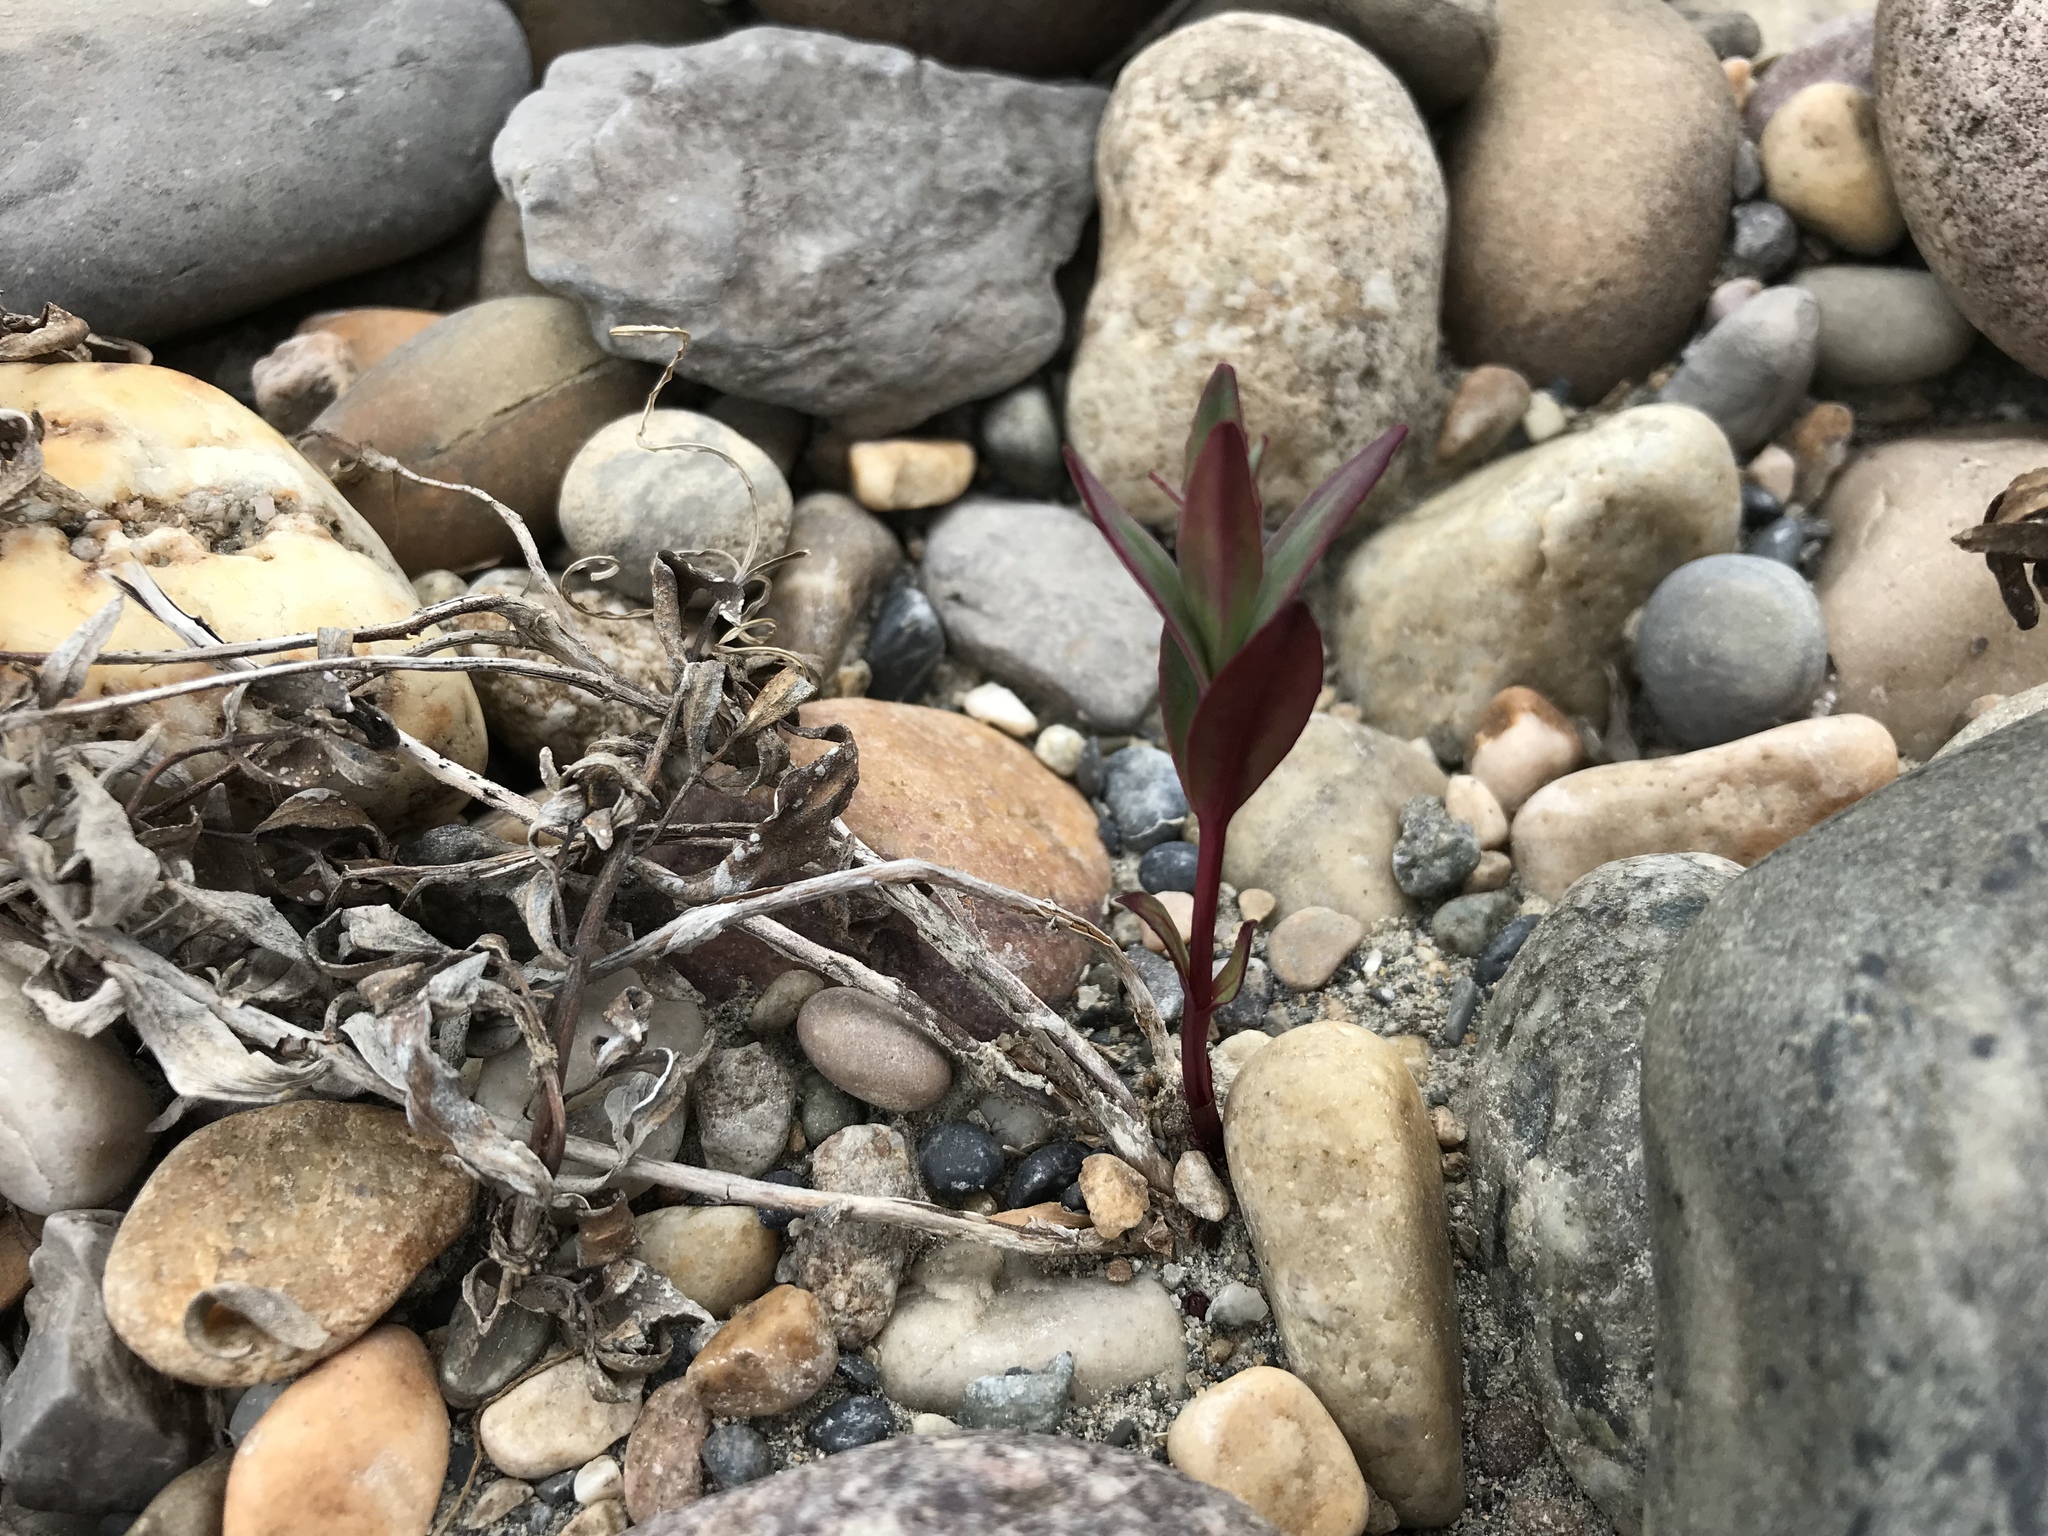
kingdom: Plantae
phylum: Tracheophyta
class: Magnoliopsida
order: Myrtales
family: Onagraceae
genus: Chamaenerion
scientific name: Chamaenerion latifolium
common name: Dwarf fireweed
